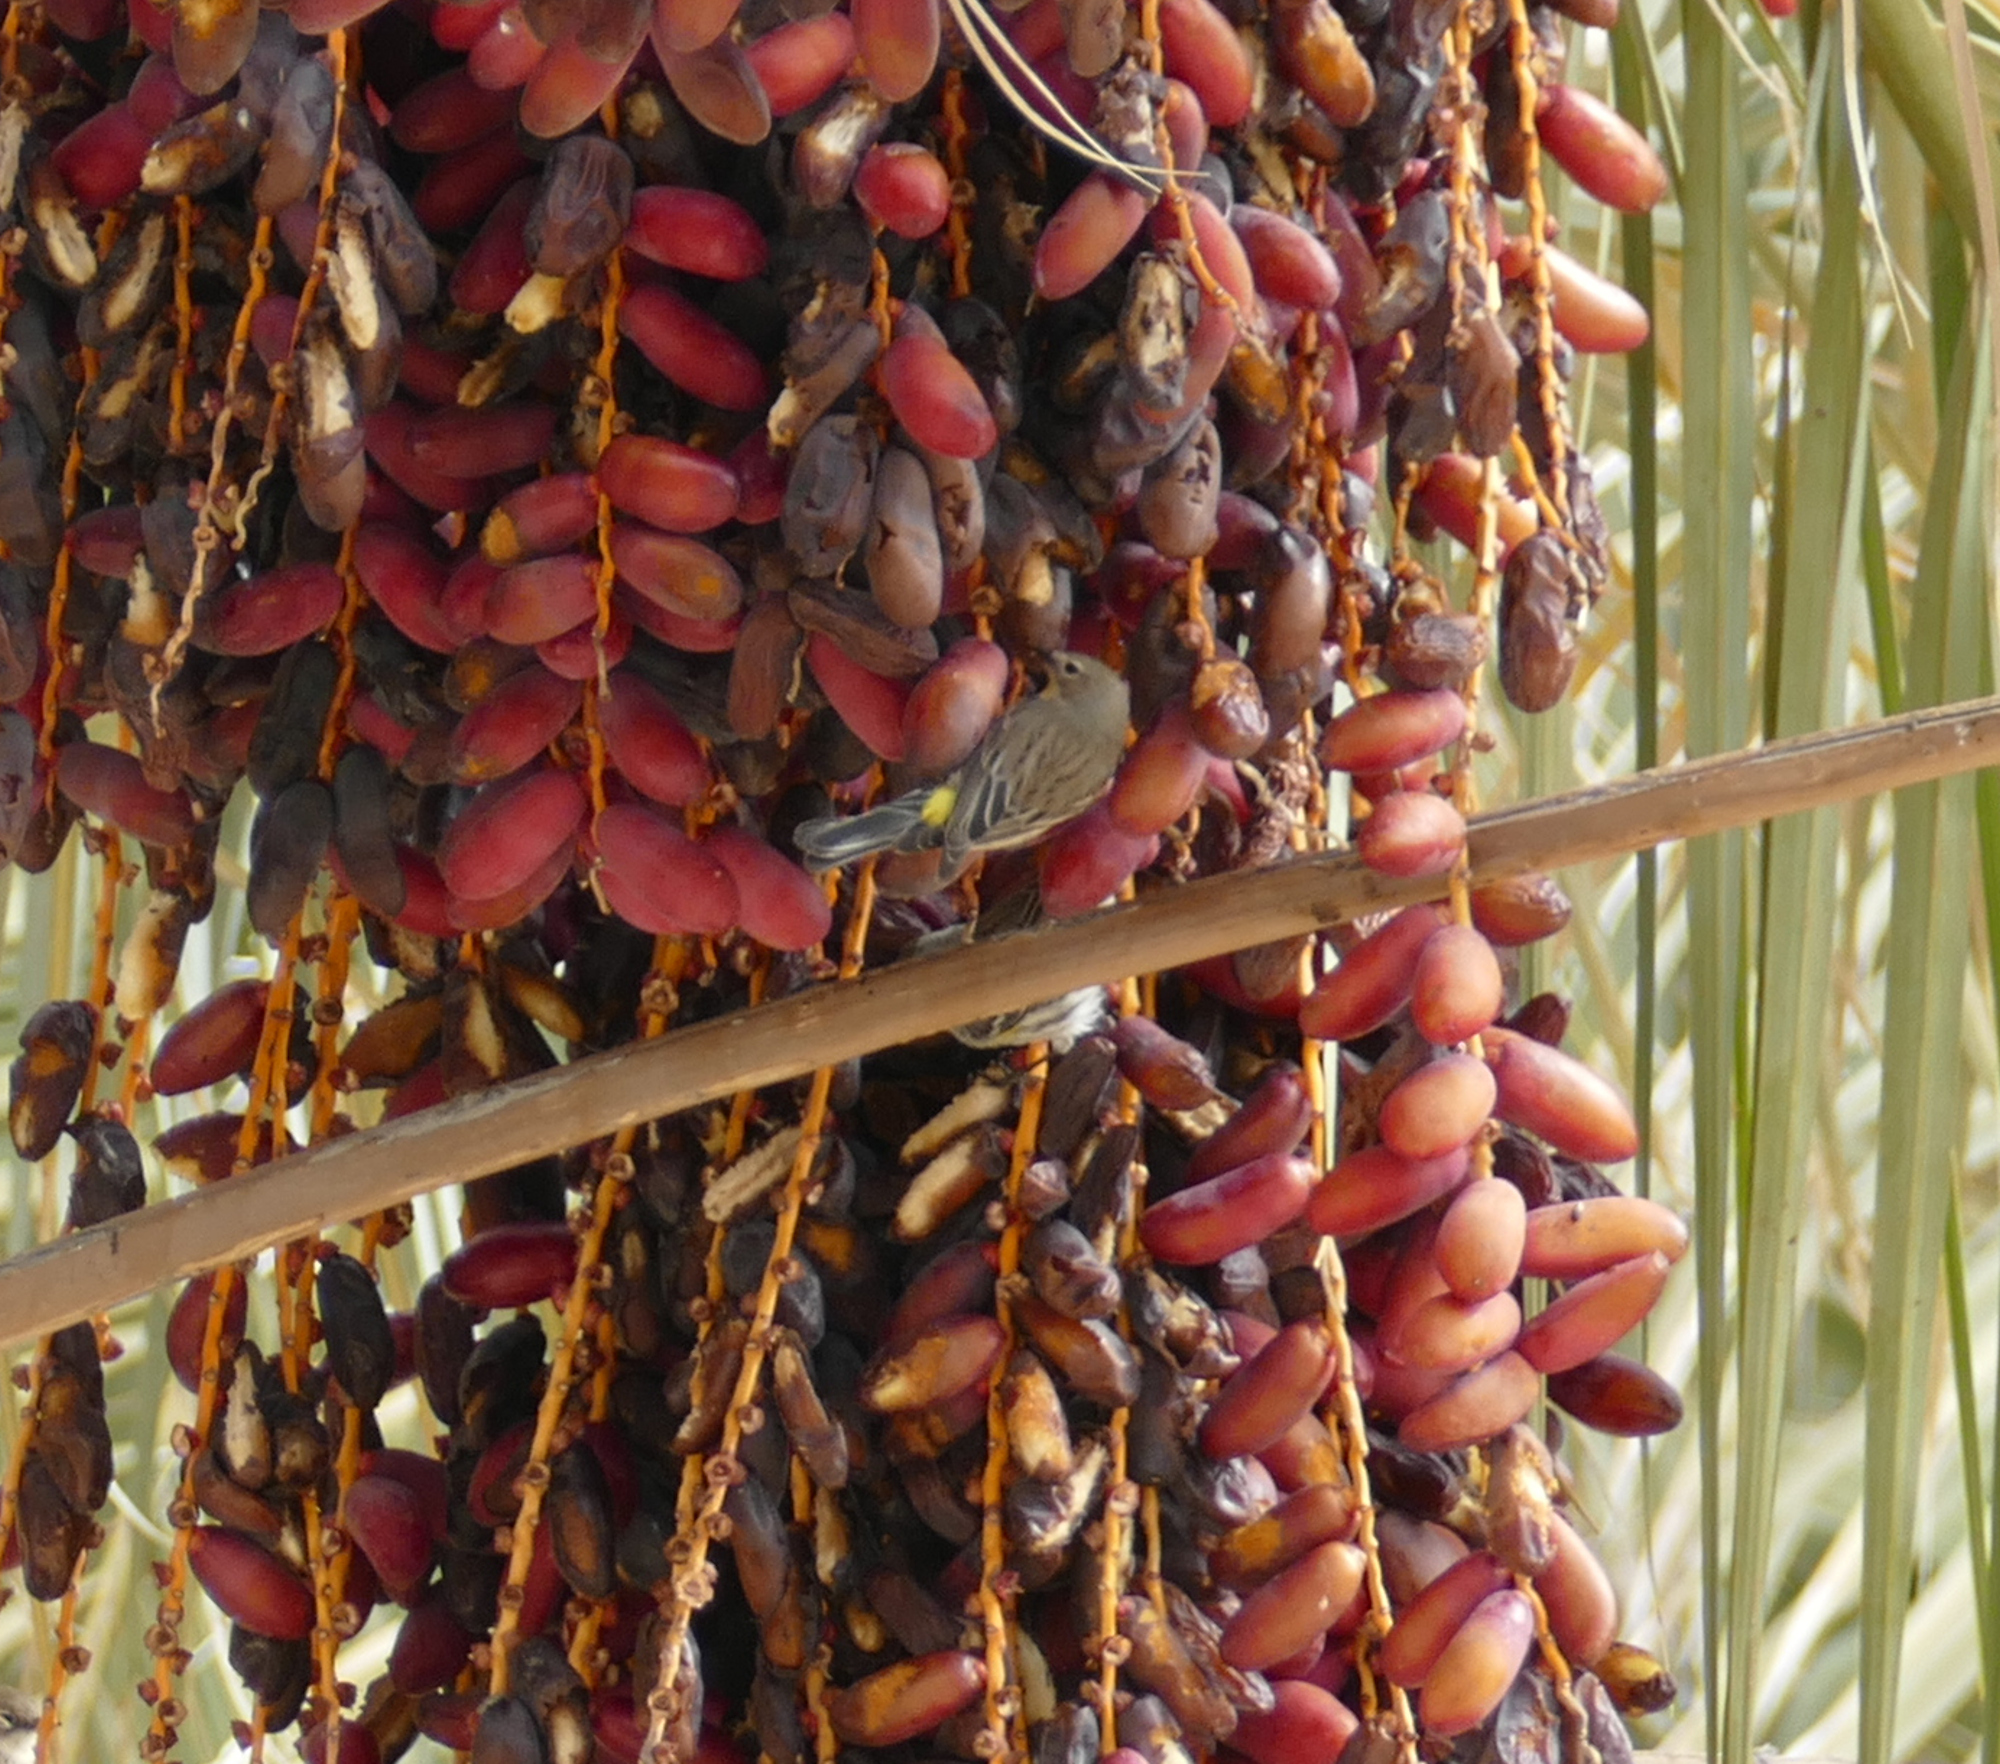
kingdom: Animalia
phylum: Chordata
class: Aves
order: Passeriformes
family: Parulidae
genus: Setophaga
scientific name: Setophaga coronata
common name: Myrtle warbler
